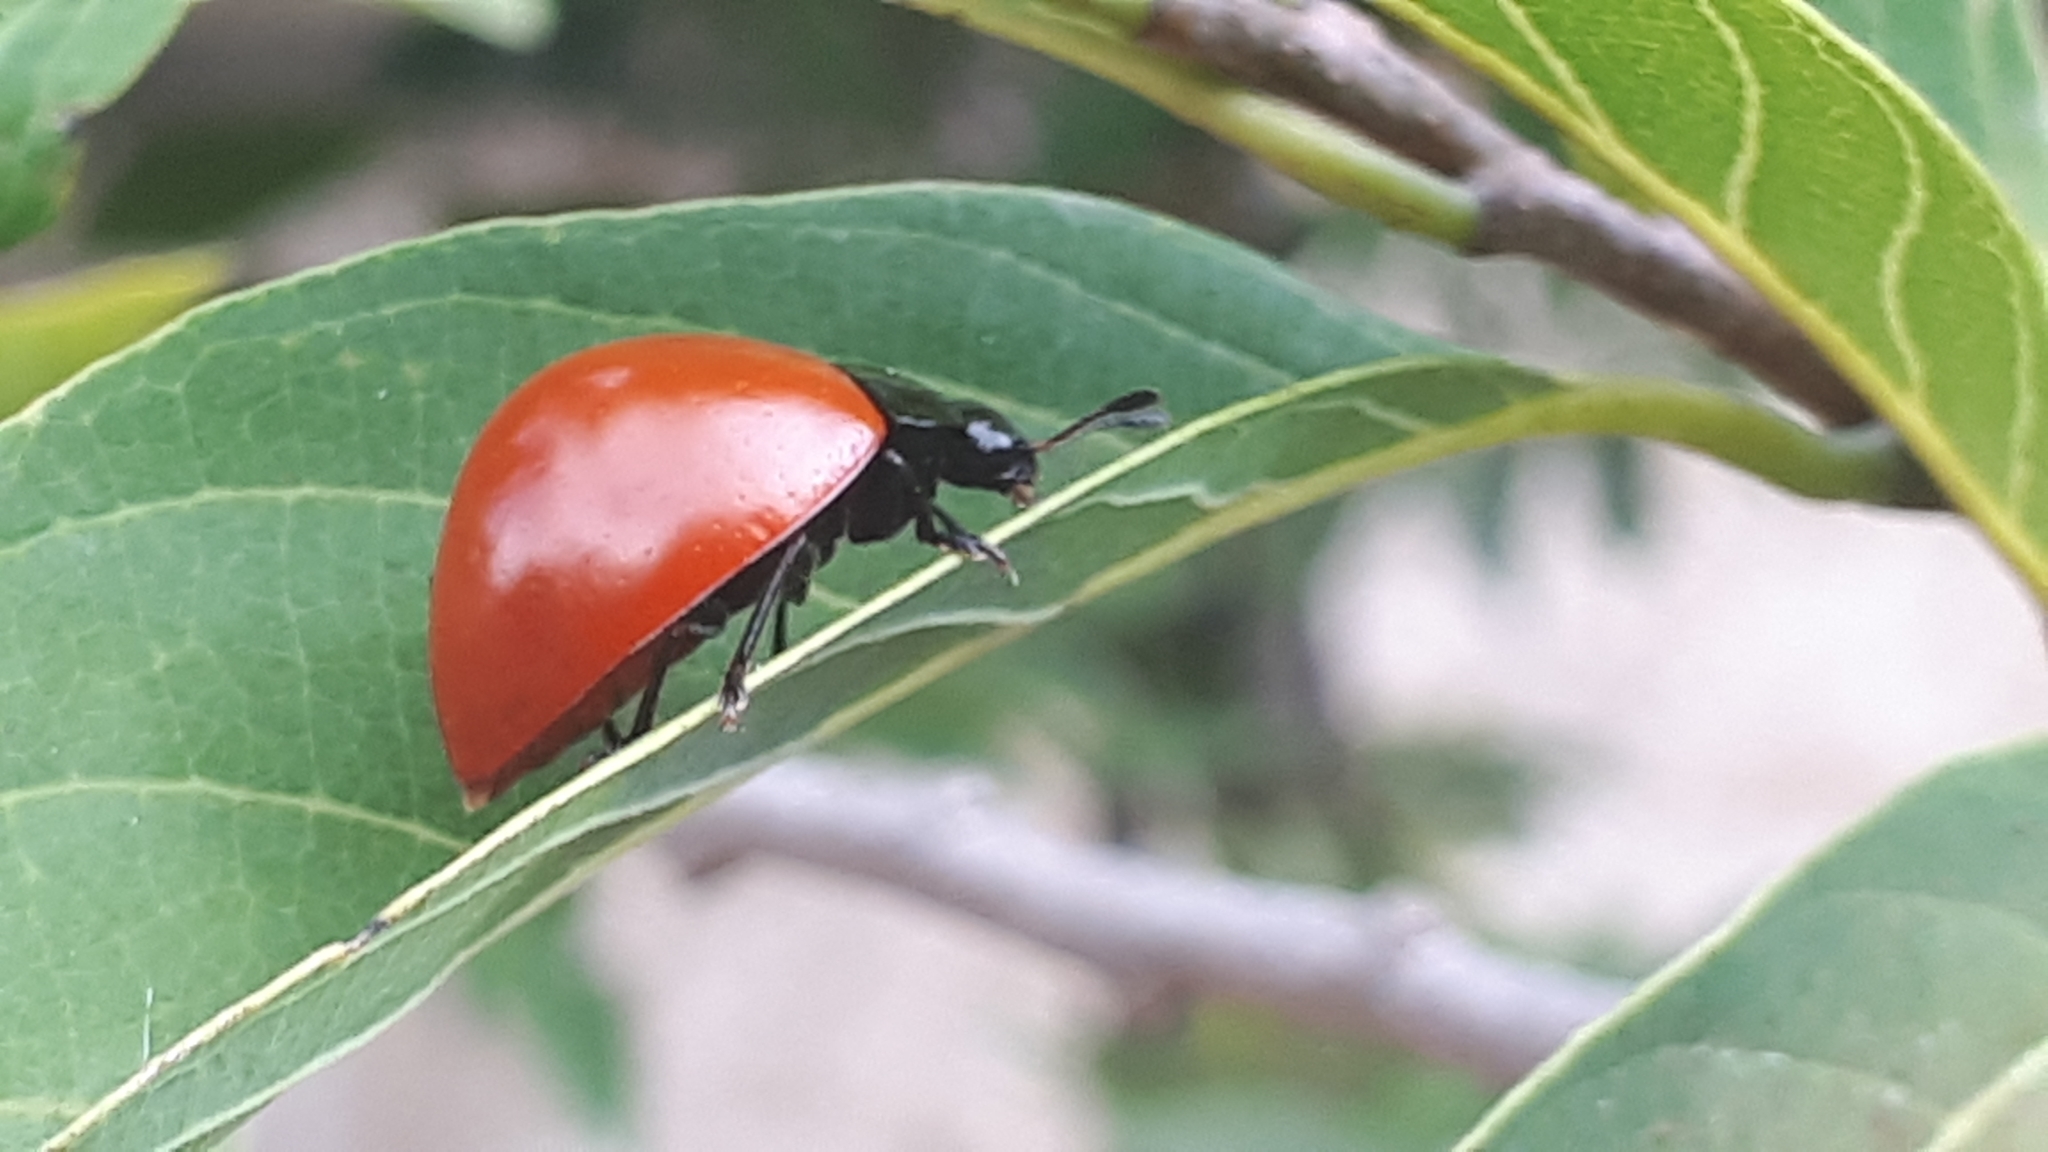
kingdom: Animalia
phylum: Arthropoda
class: Insecta
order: Coleoptera
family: Erotylidae
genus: Aegithus
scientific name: Aegithus clavicornis
